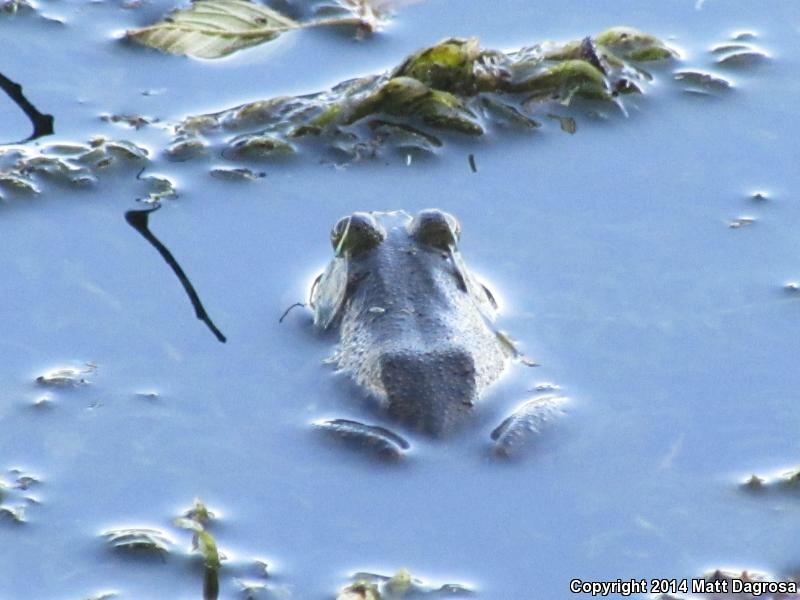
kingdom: Animalia
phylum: Chordata
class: Amphibia
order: Anura
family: Ranidae
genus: Lithobates
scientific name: Lithobates catesbeianus
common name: American bullfrog
